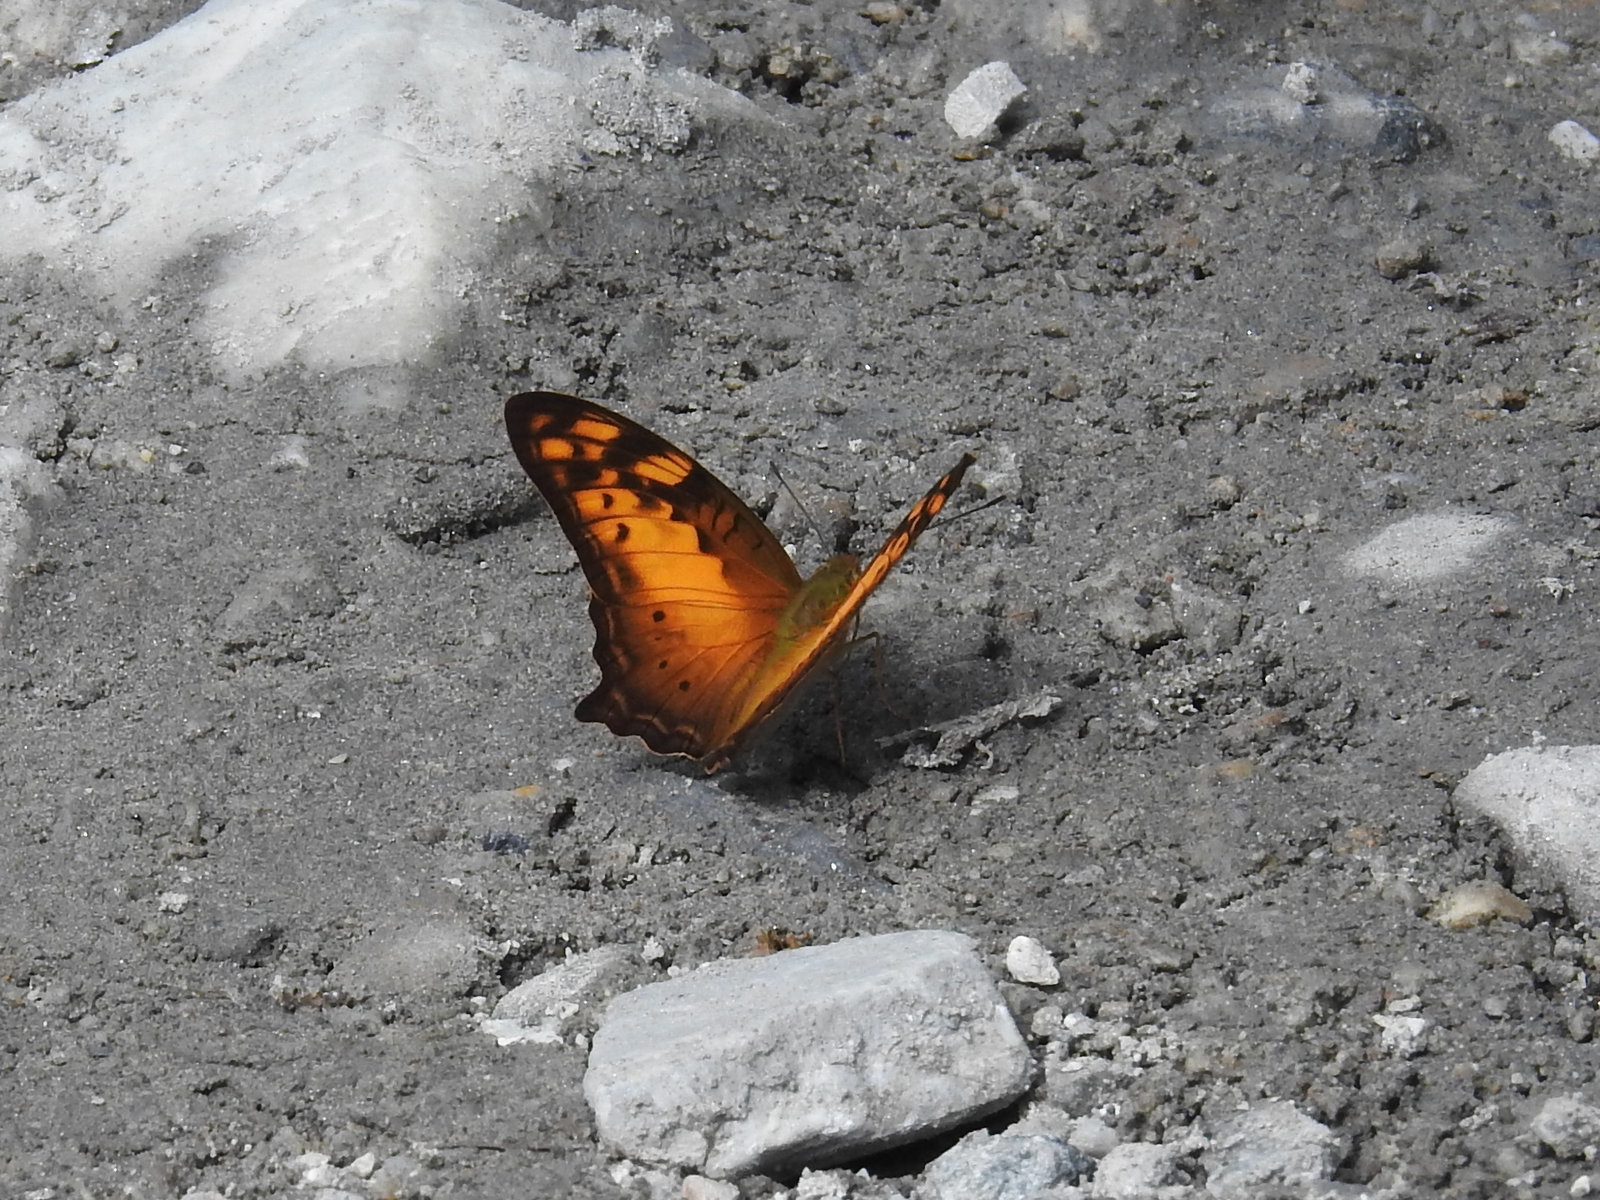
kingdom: Animalia
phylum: Arthropoda
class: Insecta
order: Lepidoptera
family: Nymphalidae
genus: Vagrans
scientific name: Vagrans sinha
